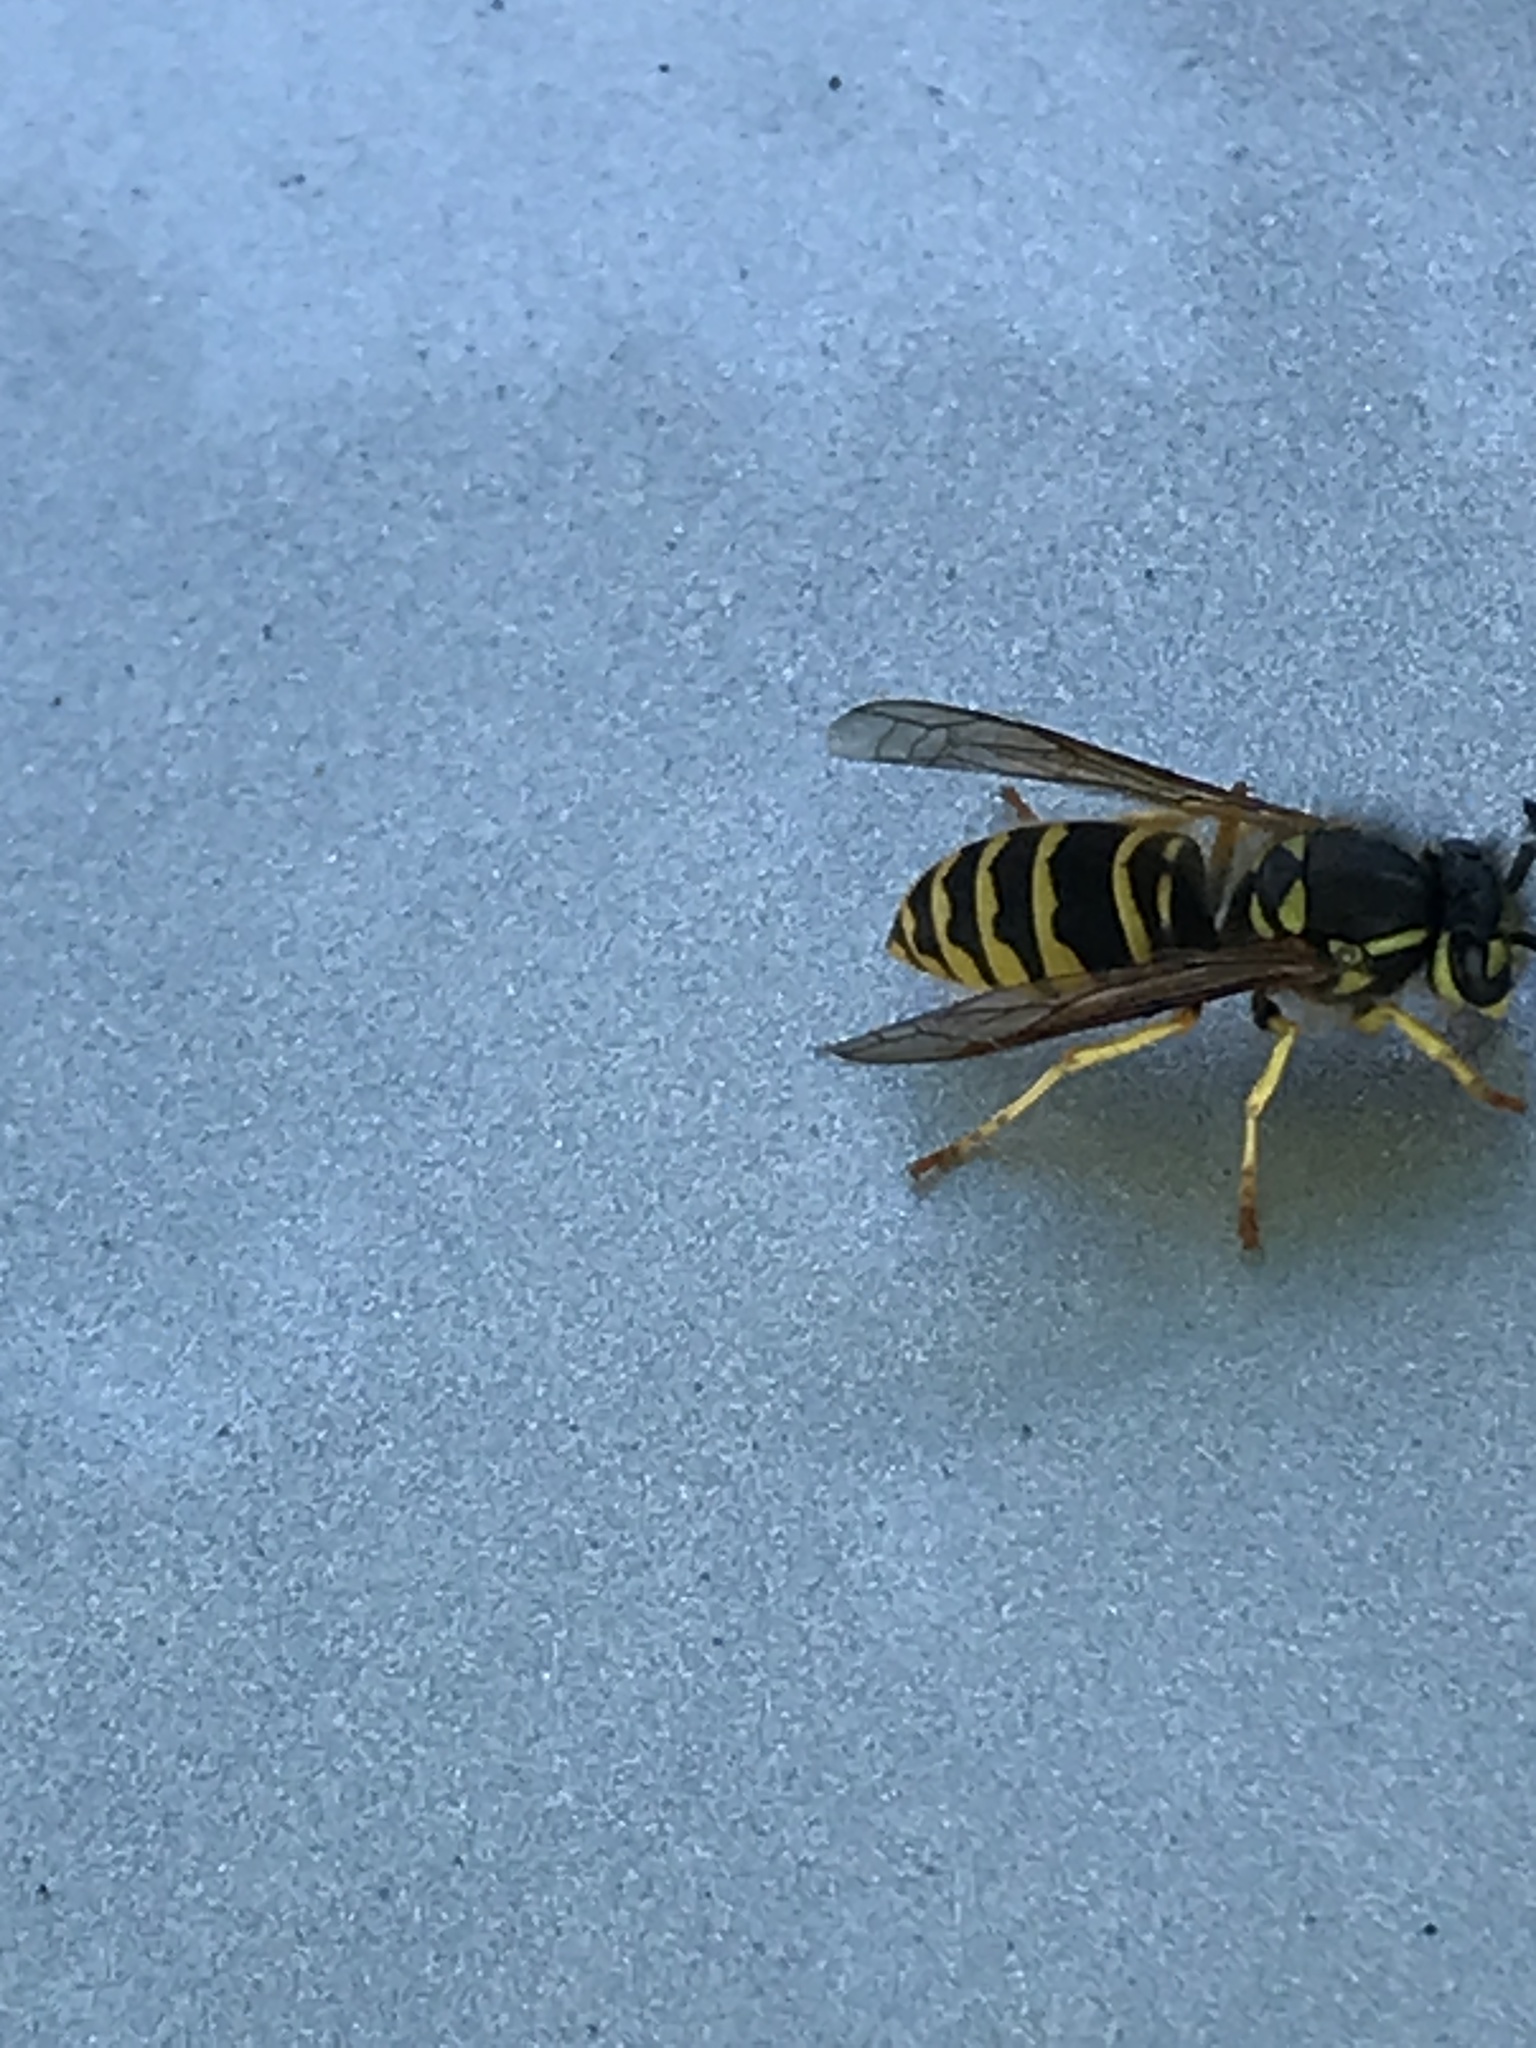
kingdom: Animalia
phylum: Arthropoda
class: Insecta
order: Hymenoptera
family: Vespidae
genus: Vespula
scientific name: Vespula maculifrons
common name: Eastern yellowjacket
